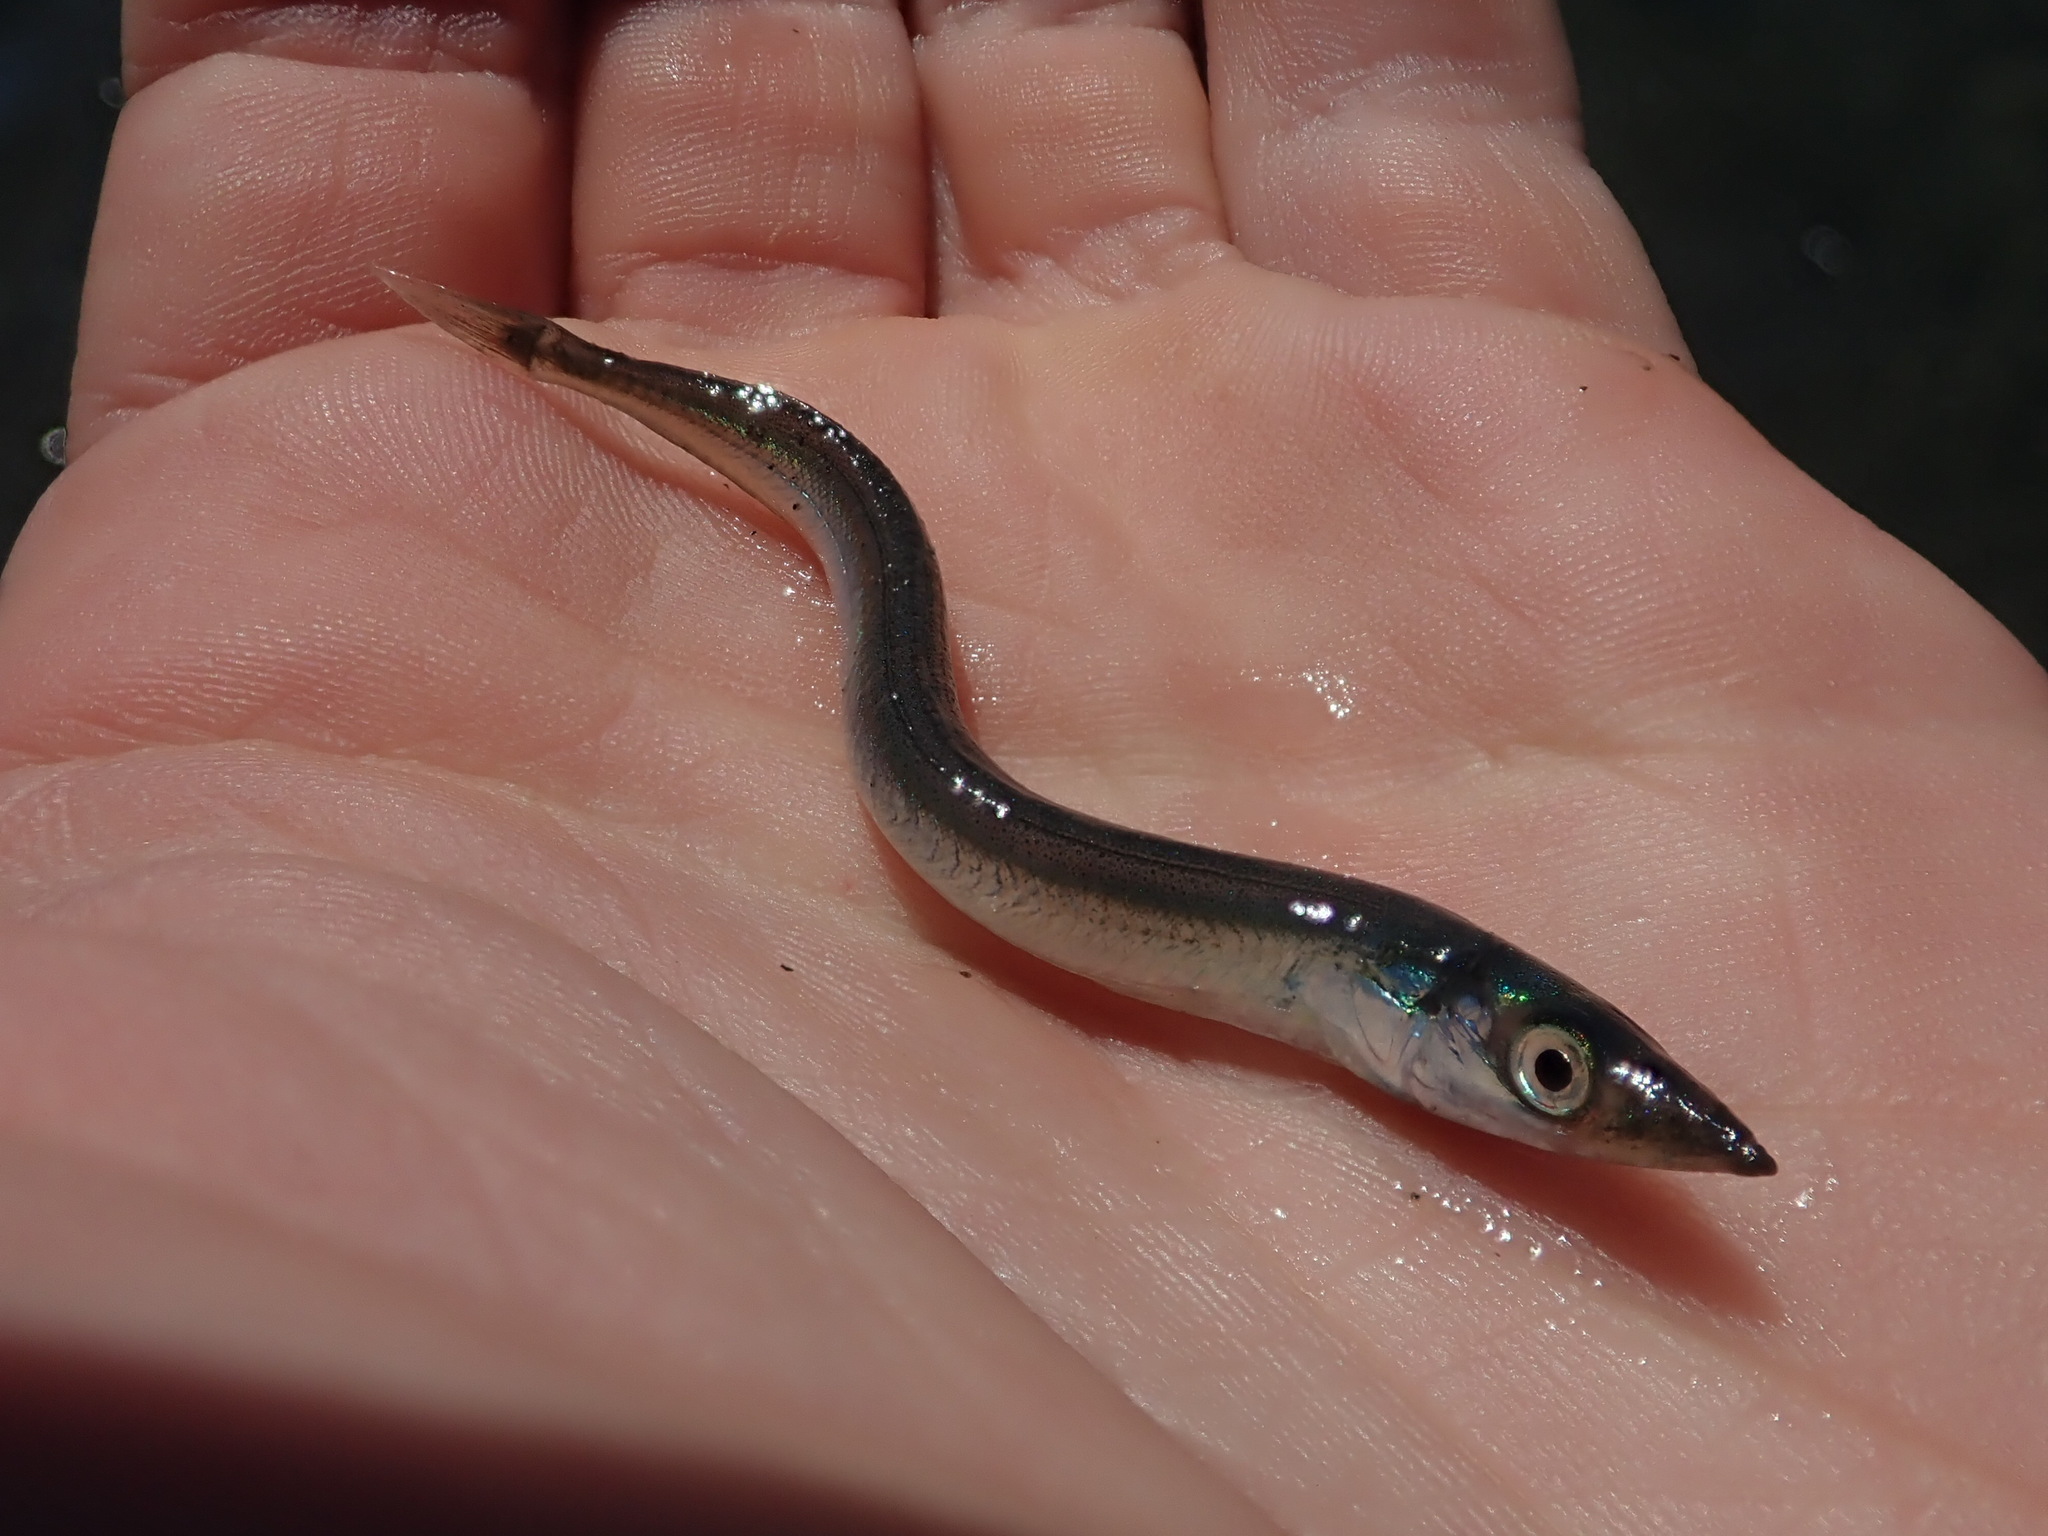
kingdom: Animalia
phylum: Chordata
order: Perciformes
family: Ammodytidae
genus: Ammodytes
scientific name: Ammodytes personatus
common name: Japanese sand lance
